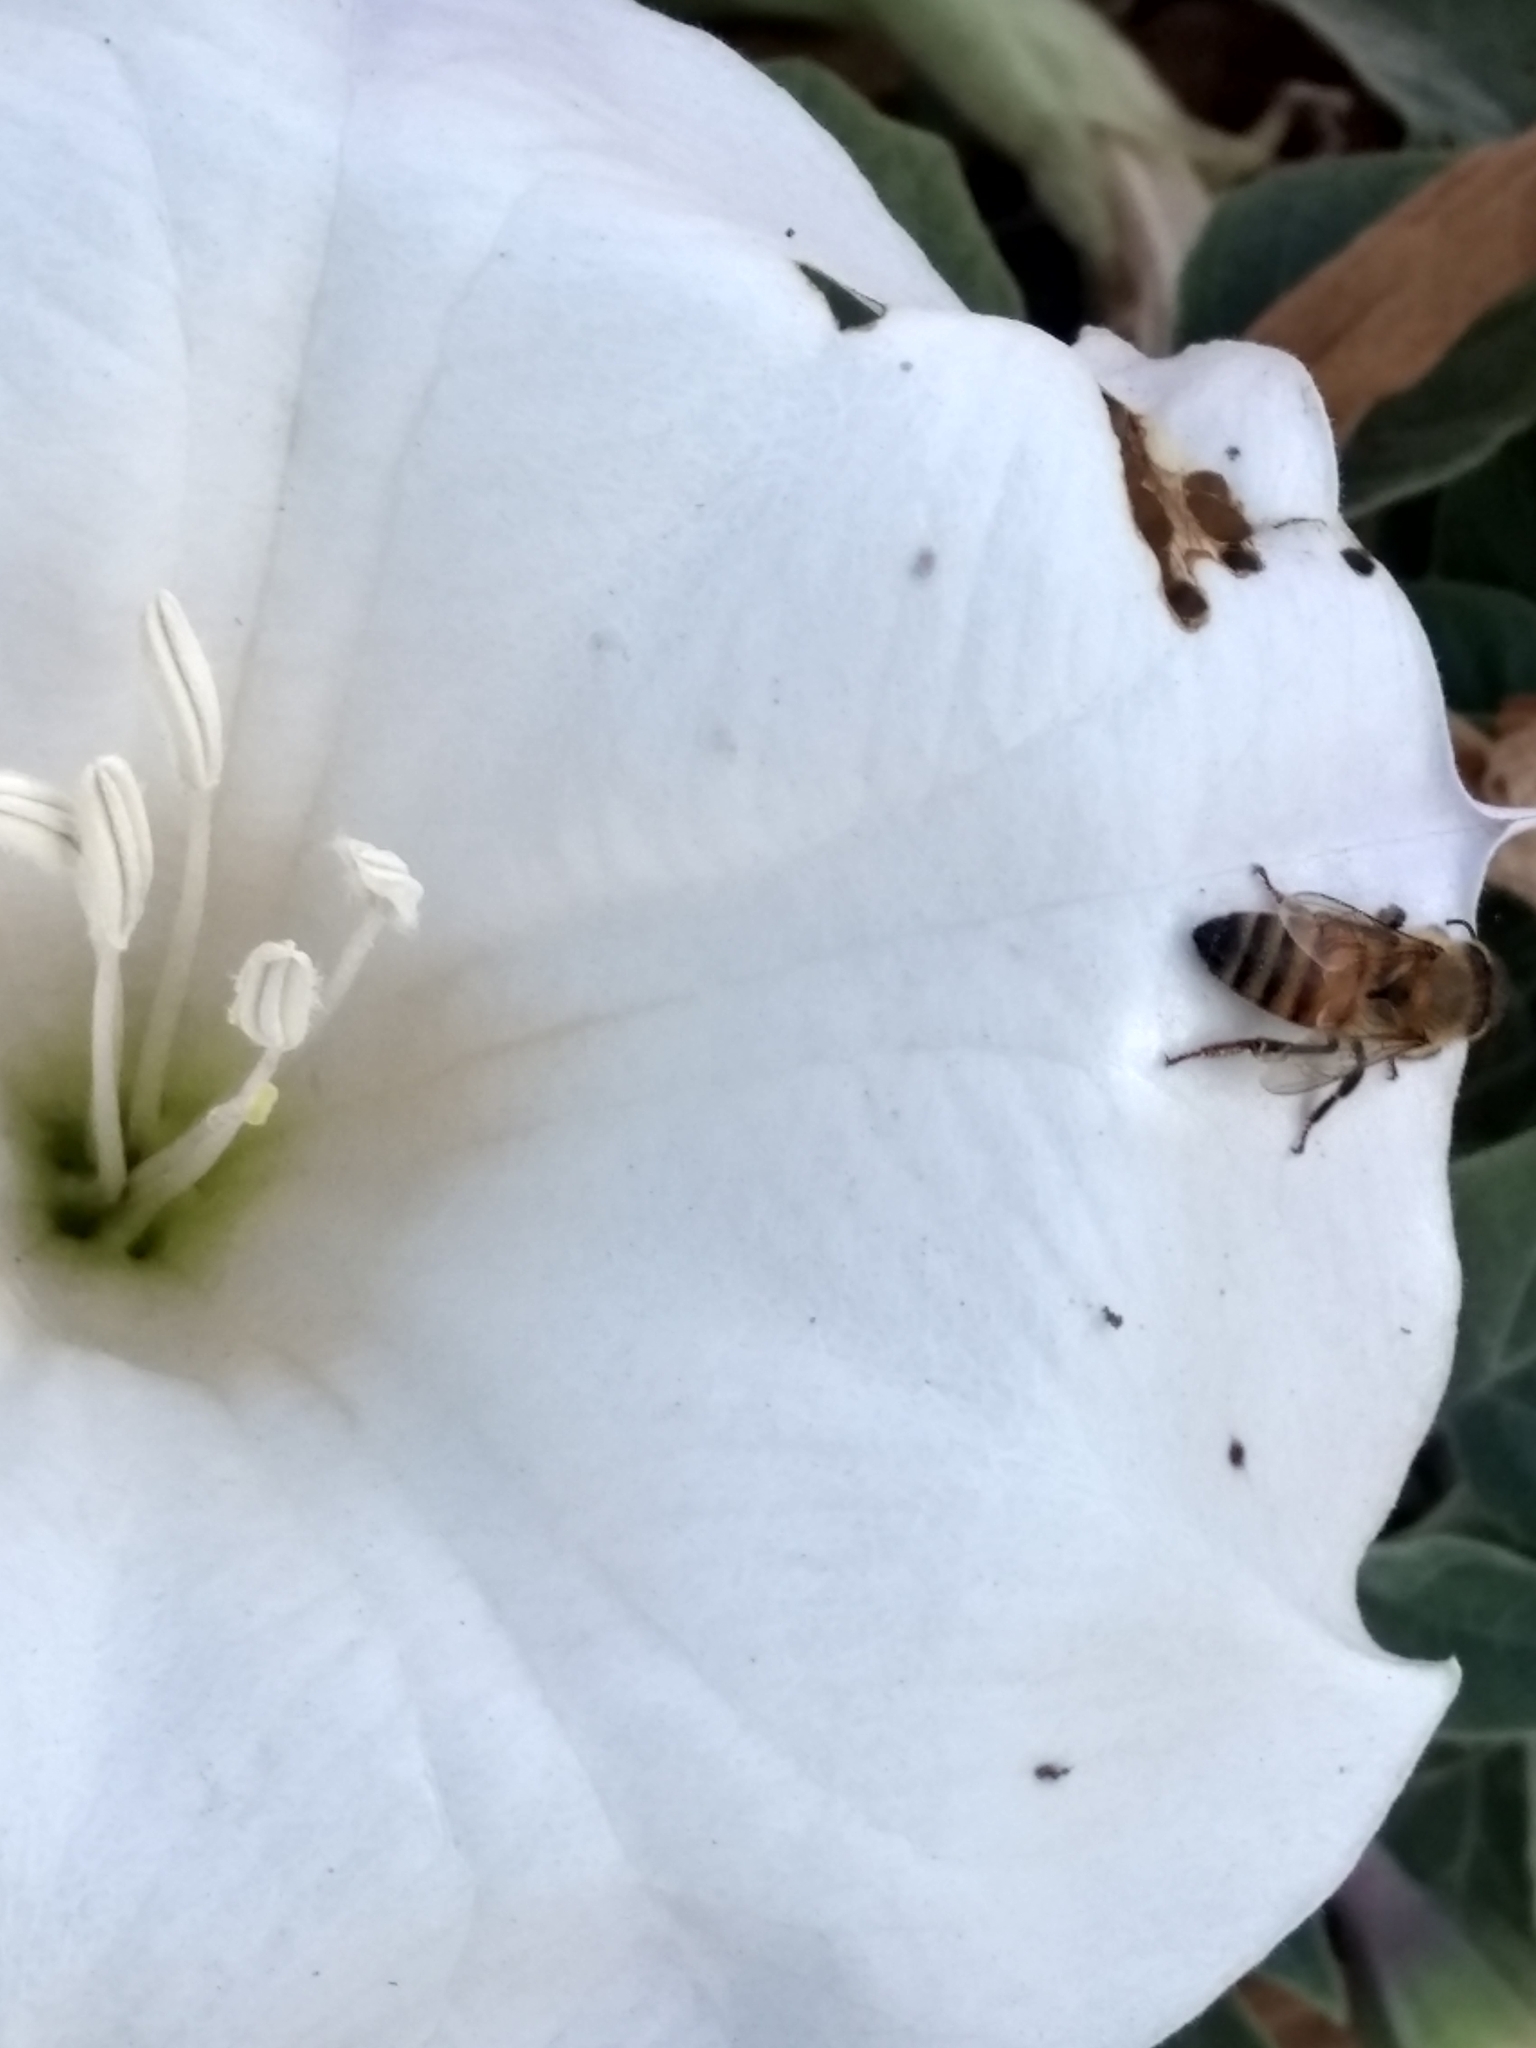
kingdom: Animalia
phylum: Arthropoda
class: Insecta
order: Hymenoptera
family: Apidae
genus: Apis
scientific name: Apis mellifera
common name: Honey bee
